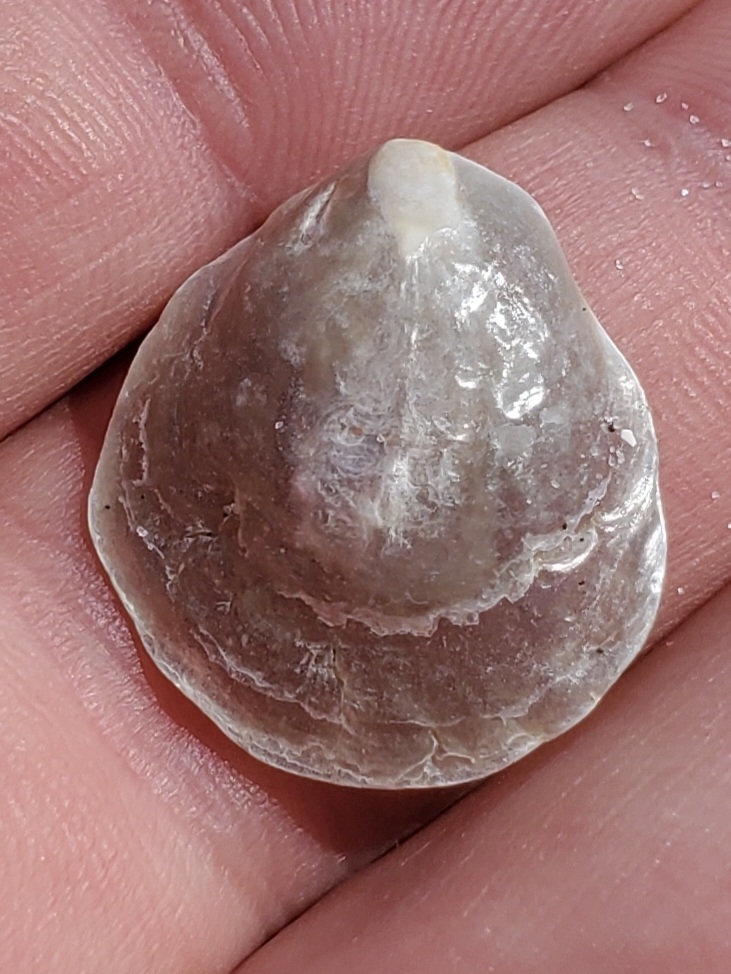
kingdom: Animalia
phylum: Mollusca
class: Bivalvia
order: Pectinida
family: Anomiidae
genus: Anomia
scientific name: Anomia simplex
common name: Common jingle shell
